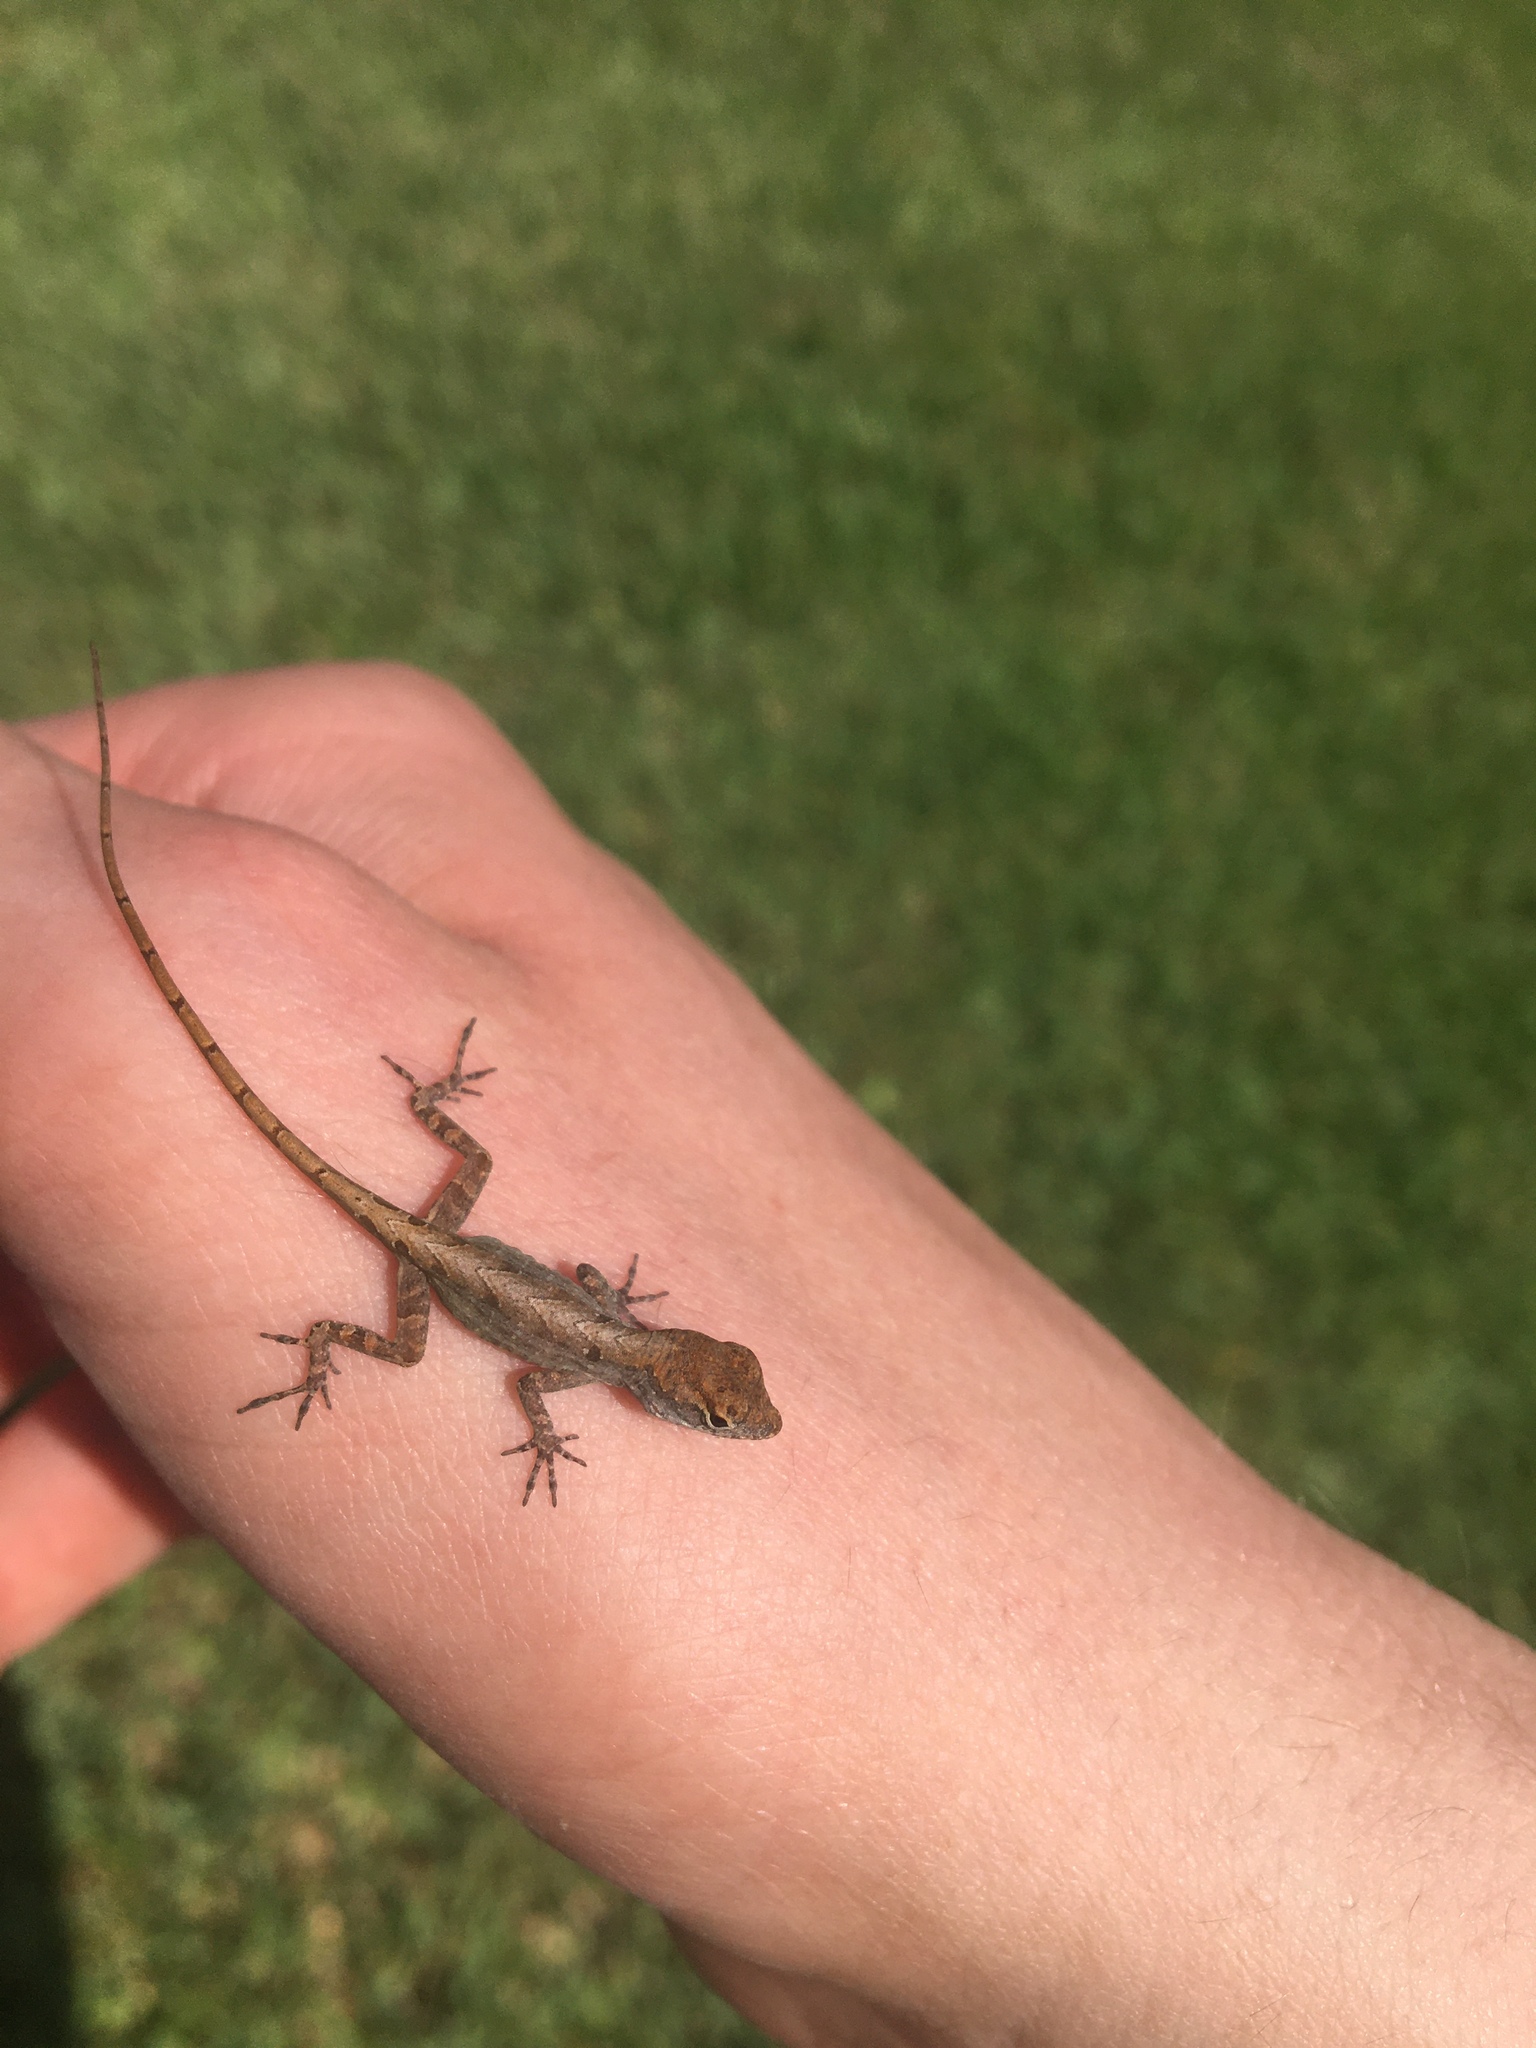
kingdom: Animalia
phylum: Chordata
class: Squamata
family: Dactyloidae
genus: Anolis
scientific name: Anolis sagrei
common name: Brown anole
